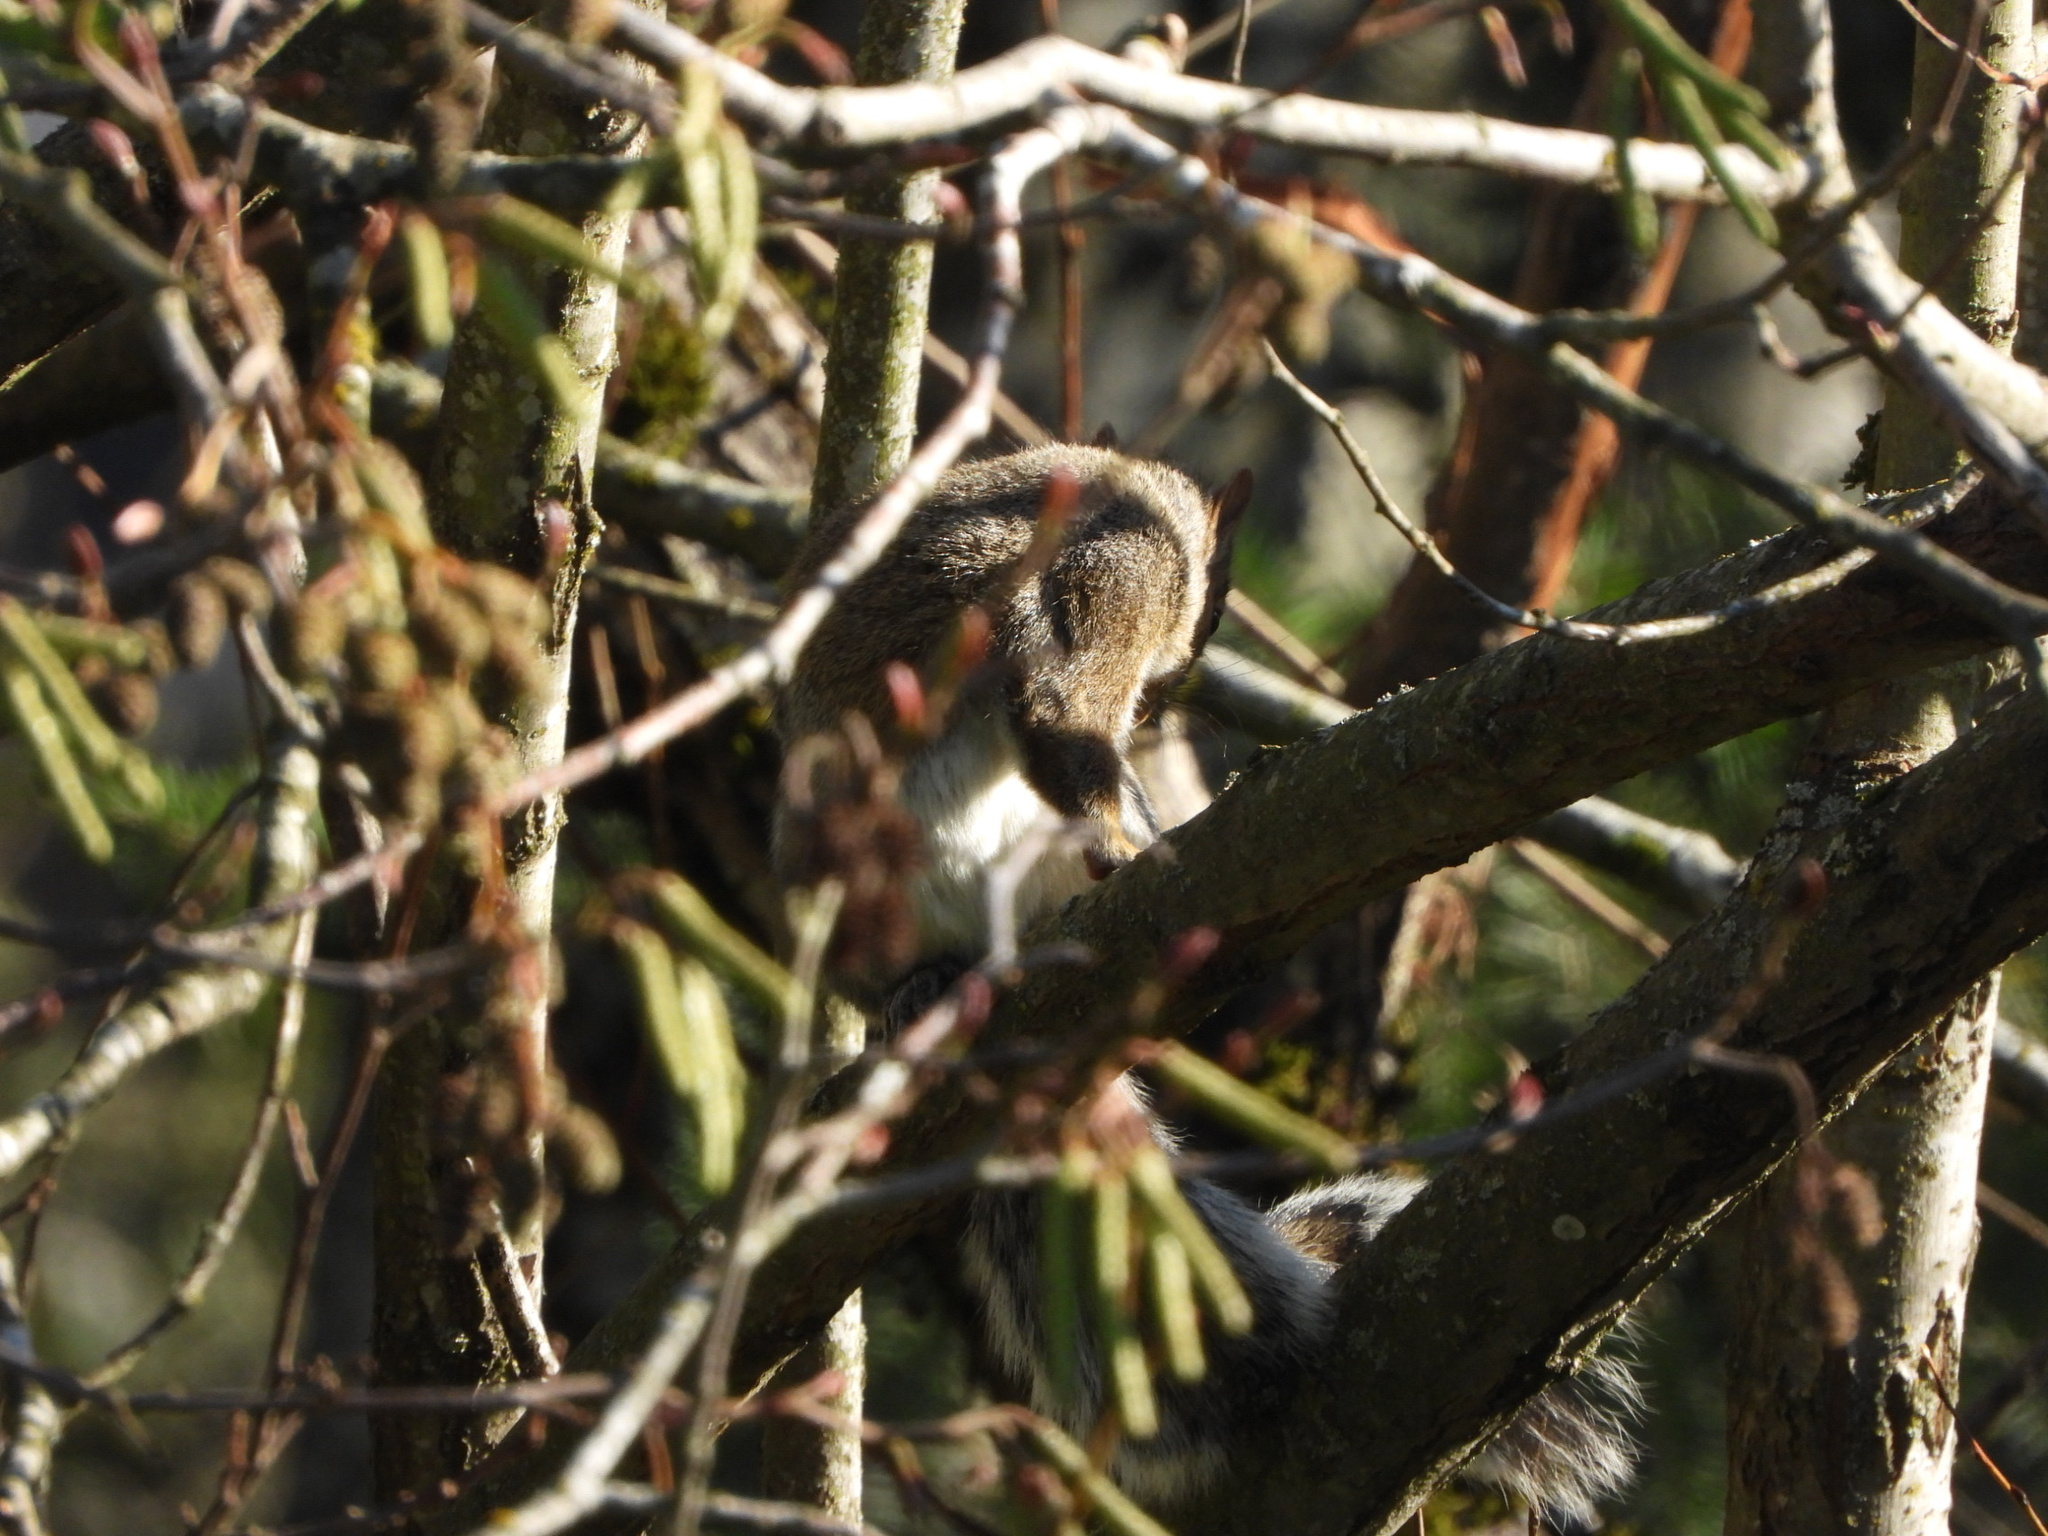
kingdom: Animalia
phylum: Chordata
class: Mammalia
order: Rodentia
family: Sciuridae
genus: Sciurus
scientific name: Sciurus carolinensis
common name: Eastern gray squirrel
